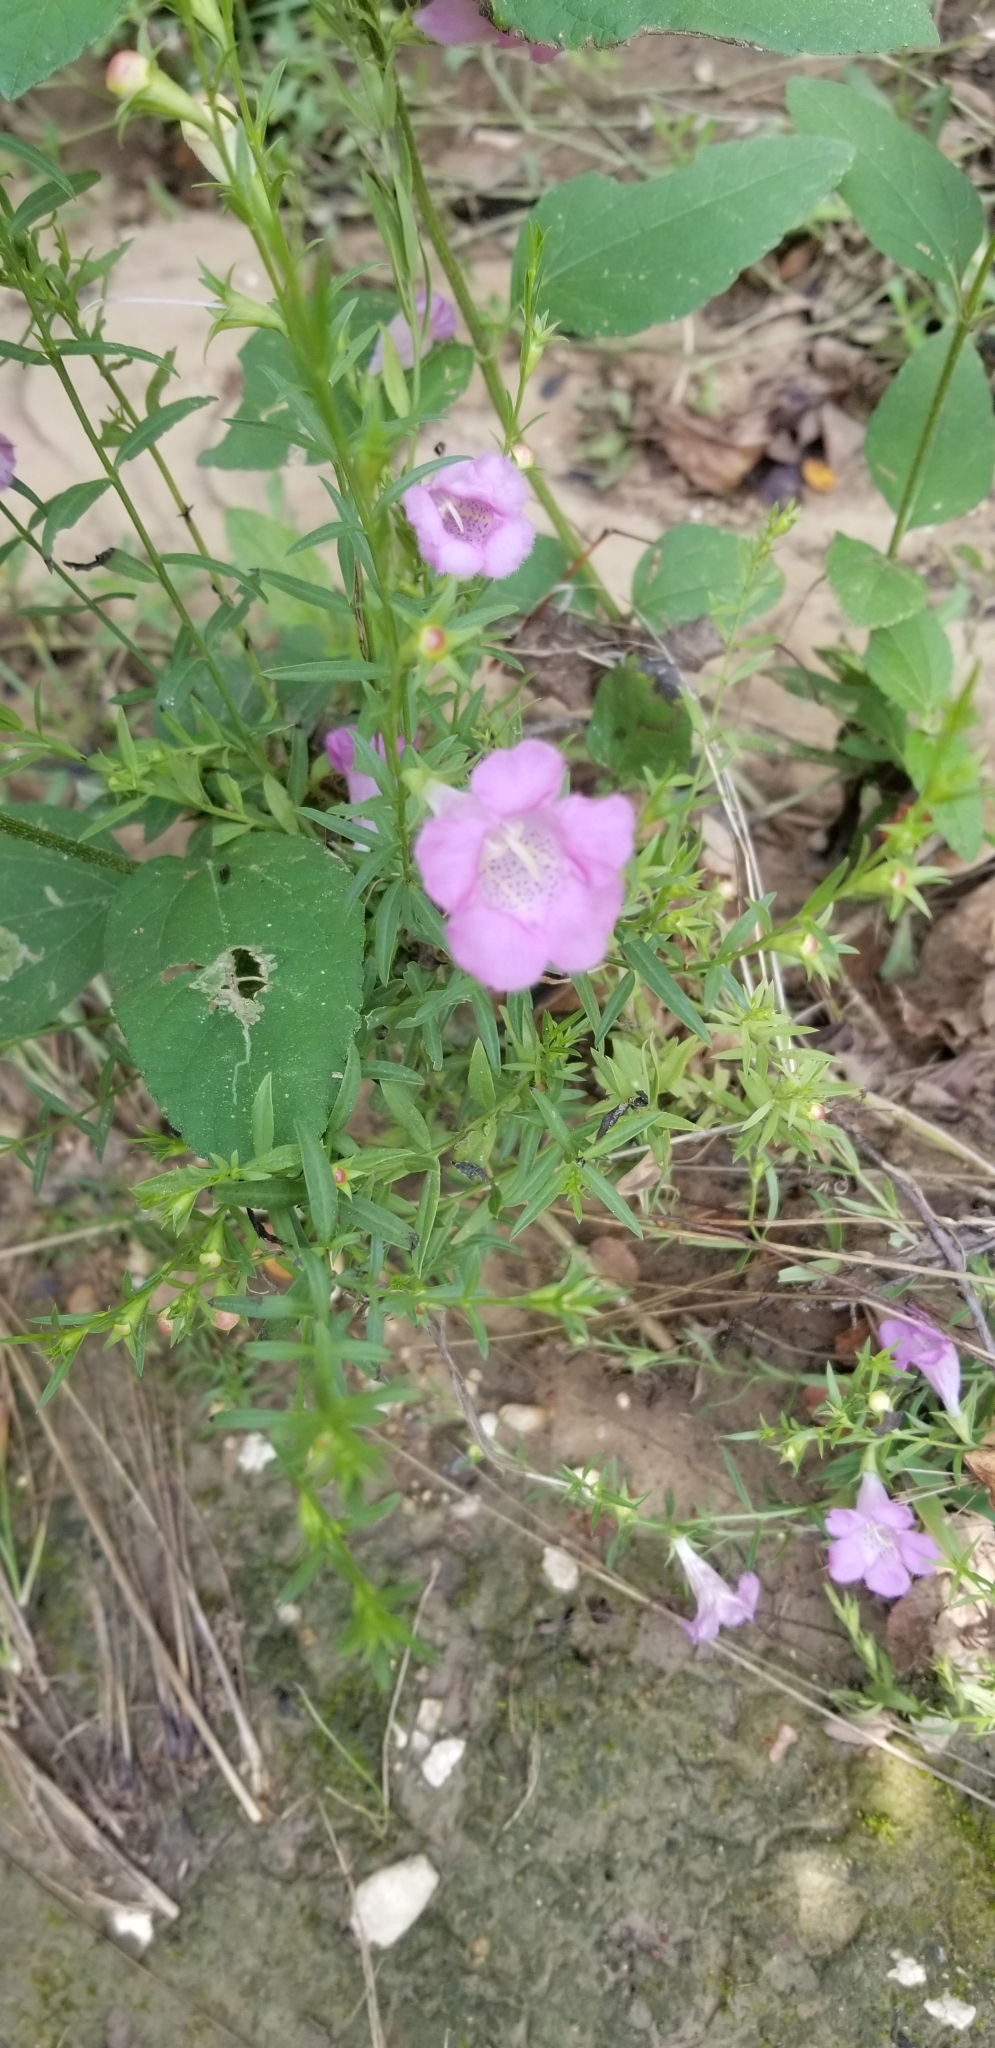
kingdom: Plantae
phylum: Tracheophyta
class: Magnoliopsida
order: Lamiales
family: Orobanchaceae
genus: Agalinis
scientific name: Agalinis heterophylla
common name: Prairie agalinis
